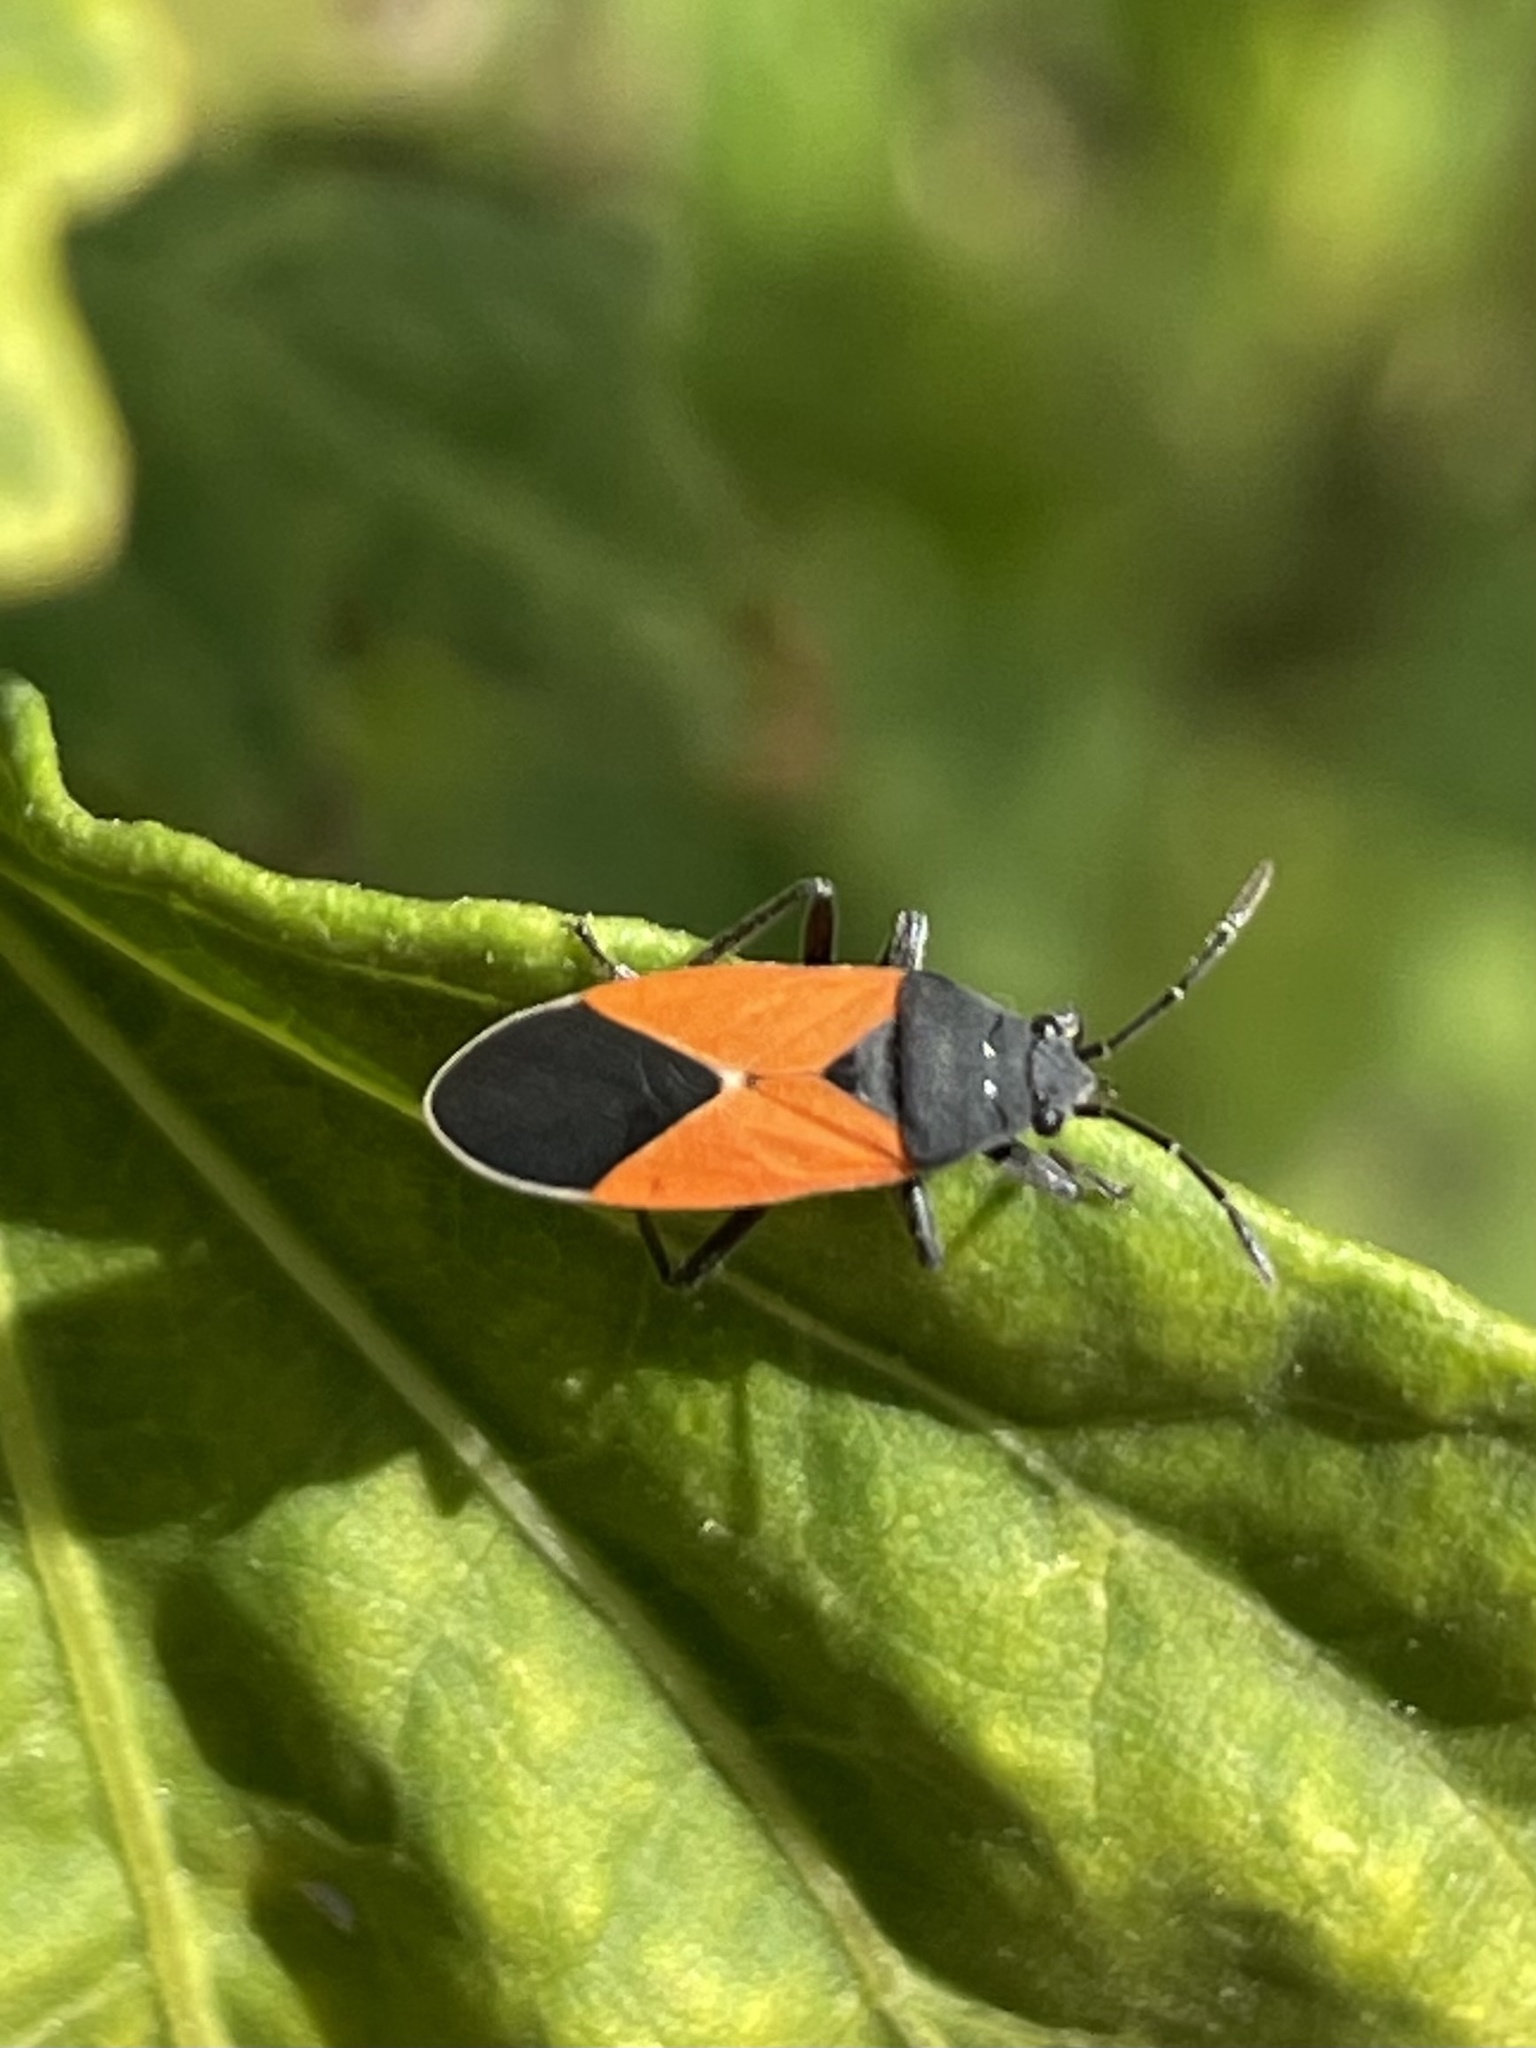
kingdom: Animalia
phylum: Arthropoda
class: Insecta
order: Hemiptera
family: Lygaeidae
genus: Melanopleurus
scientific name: Melanopleurus bicolor
